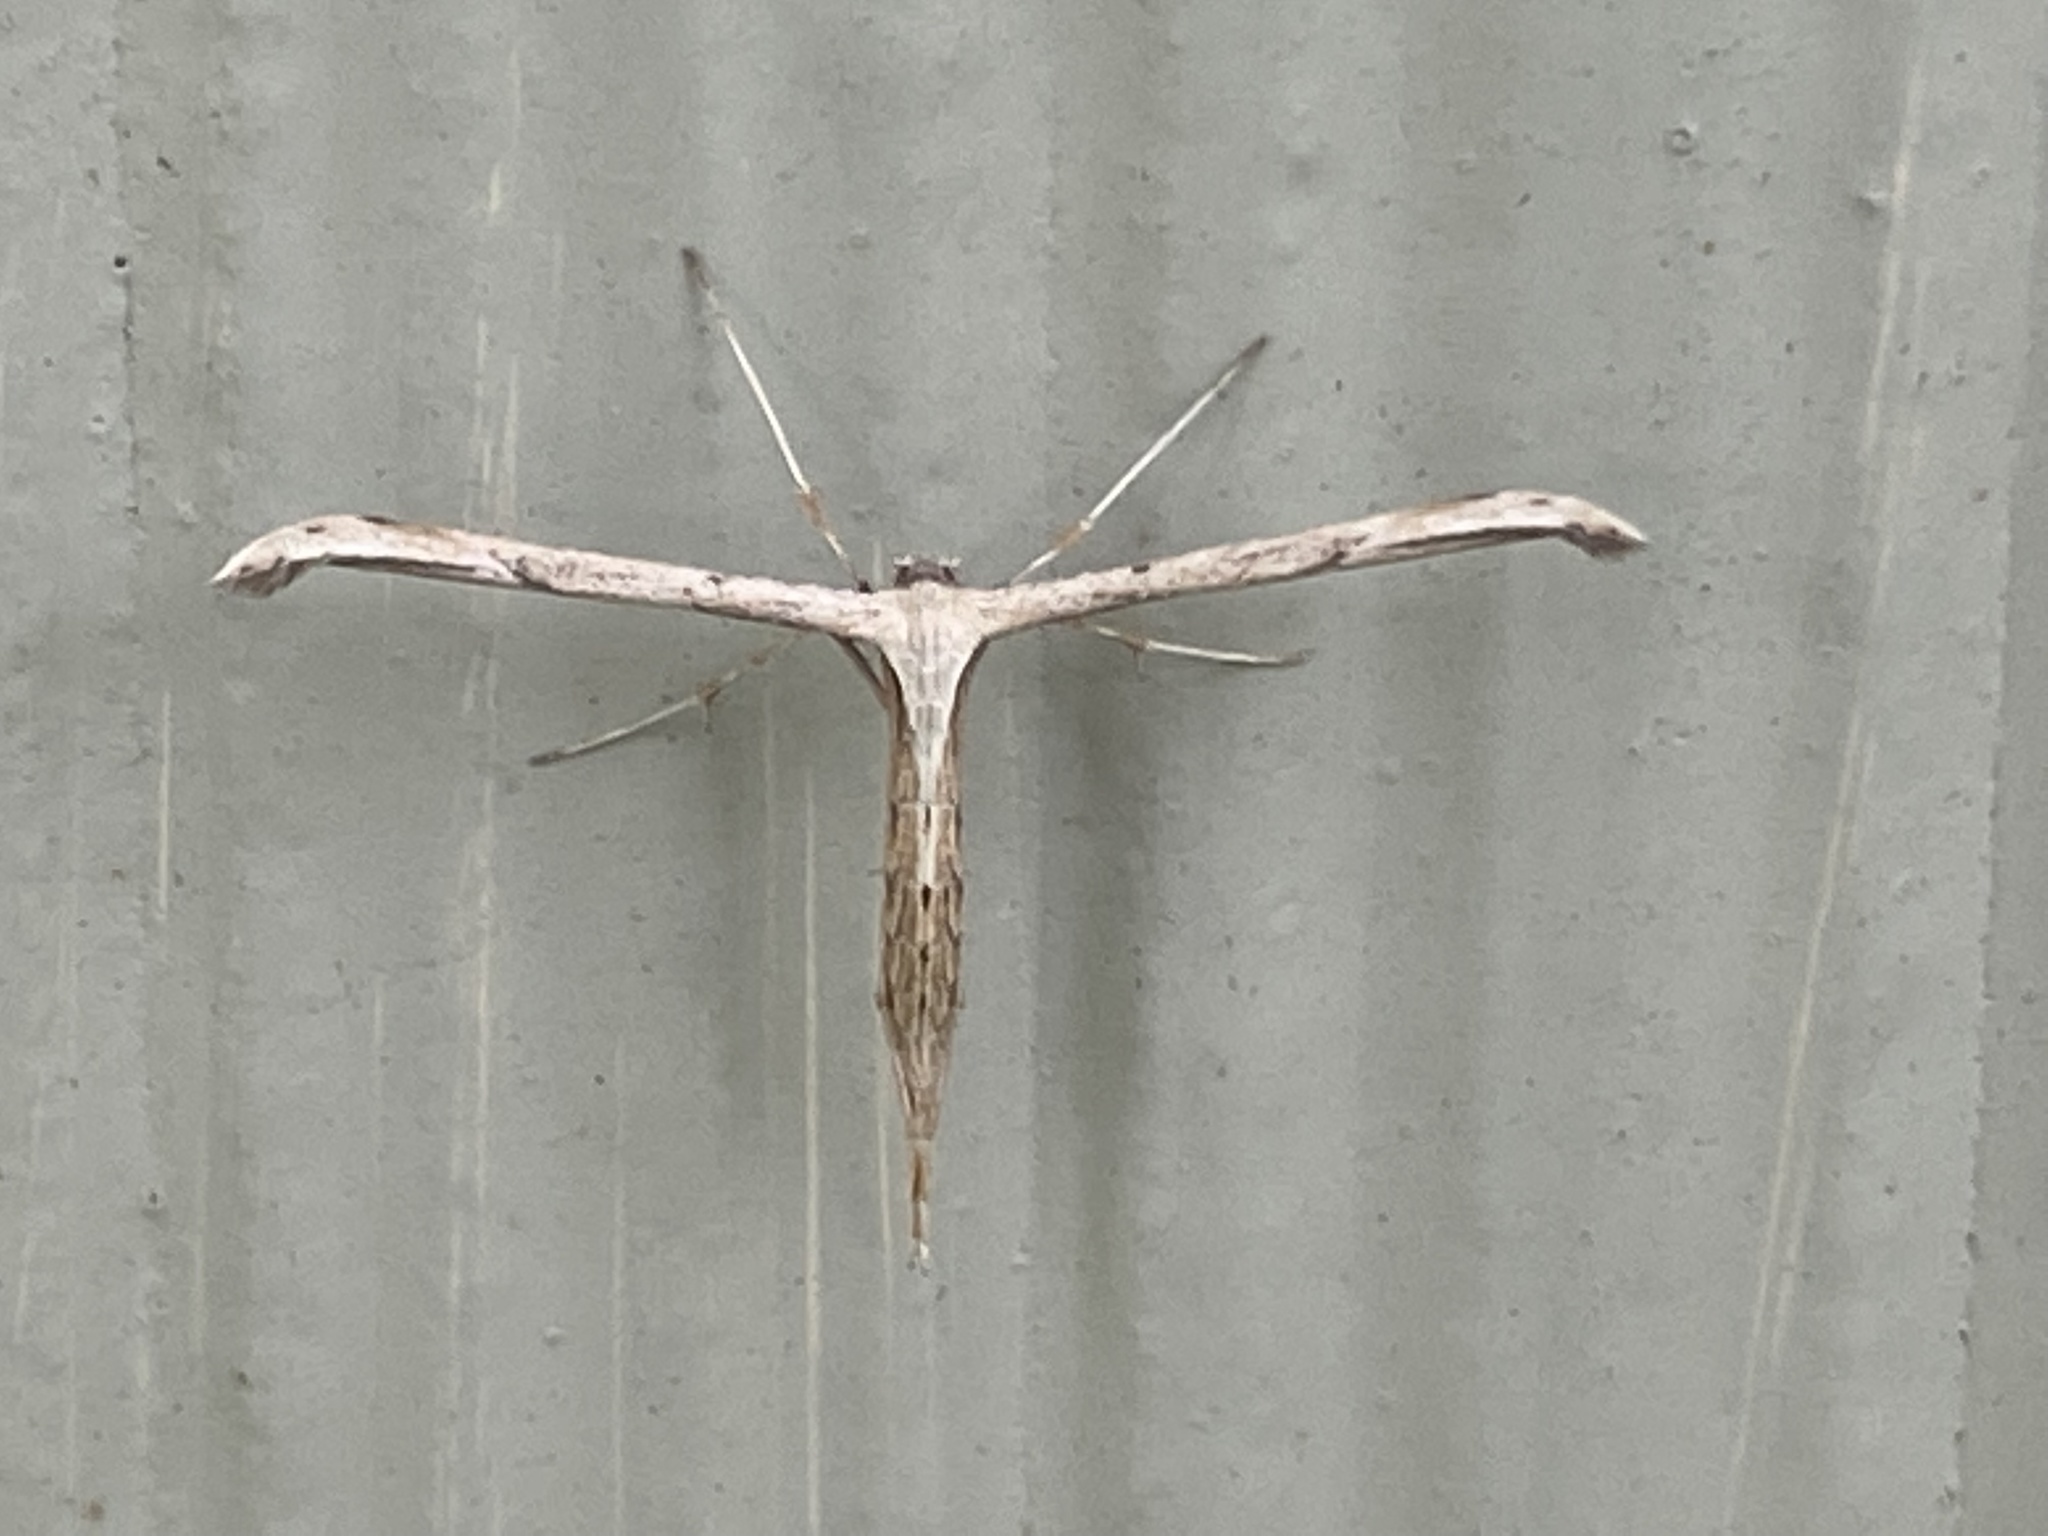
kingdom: Animalia
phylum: Arthropoda
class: Insecta
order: Lepidoptera
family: Pterophoridae
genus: Emmelina
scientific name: Emmelina monodactyla
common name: Common plume
